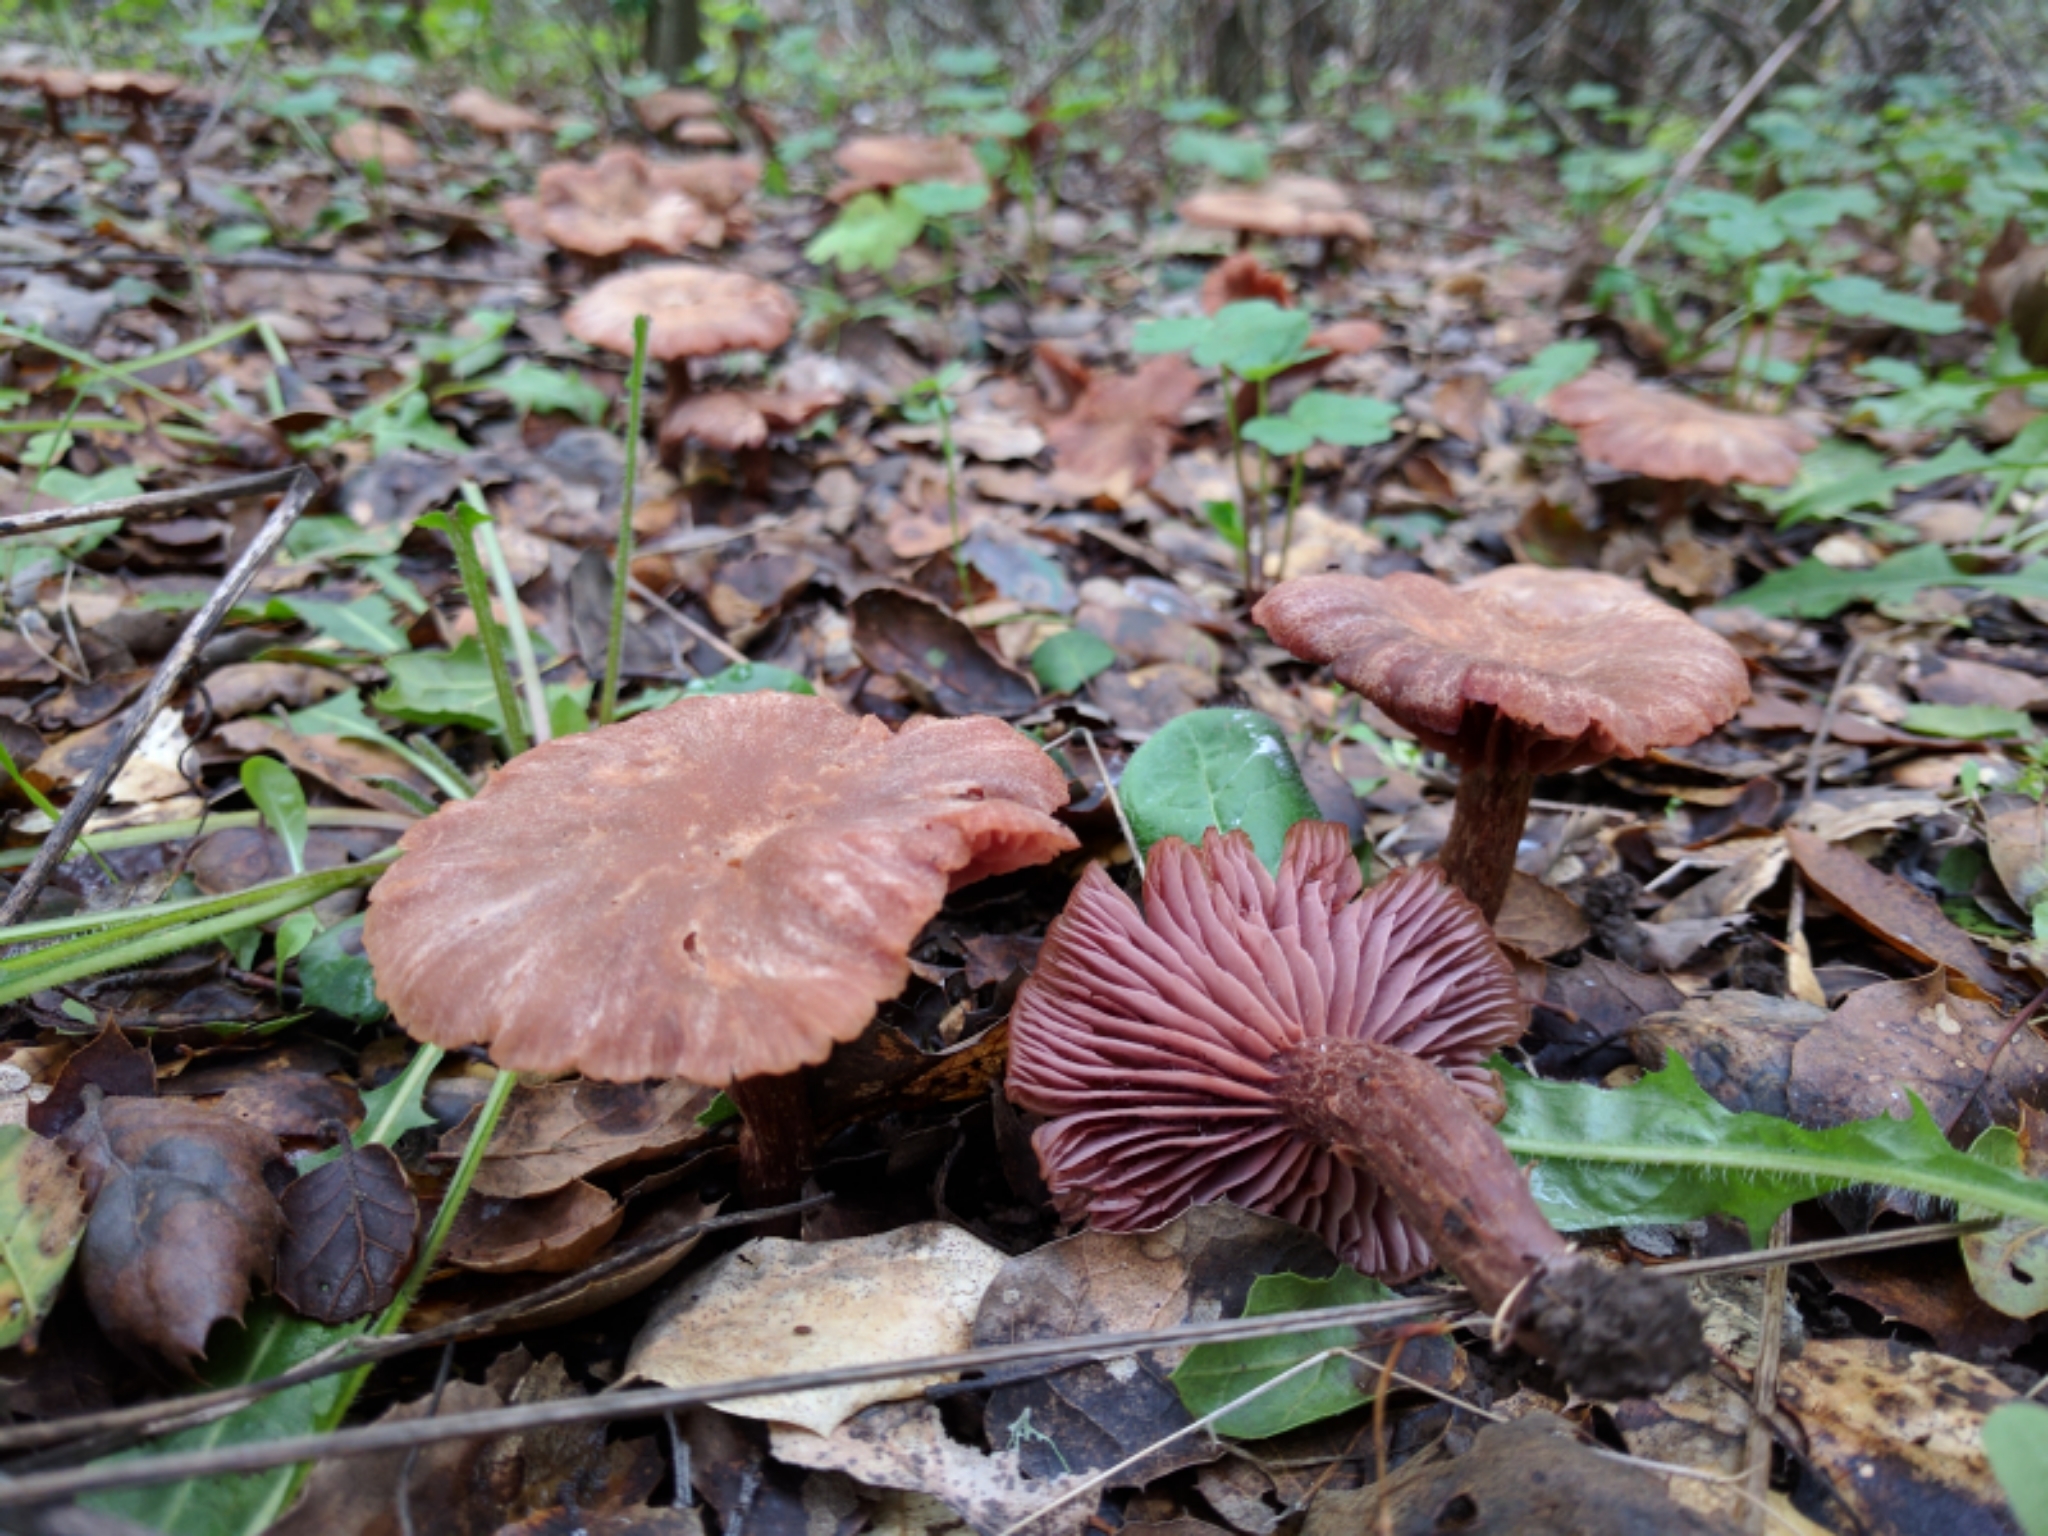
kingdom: Fungi
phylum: Basidiomycota
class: Agaricomycetes
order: Agaricales
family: Hydnangiaceae
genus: Laccaria
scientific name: Laccaria amethysteo-occidentalis
